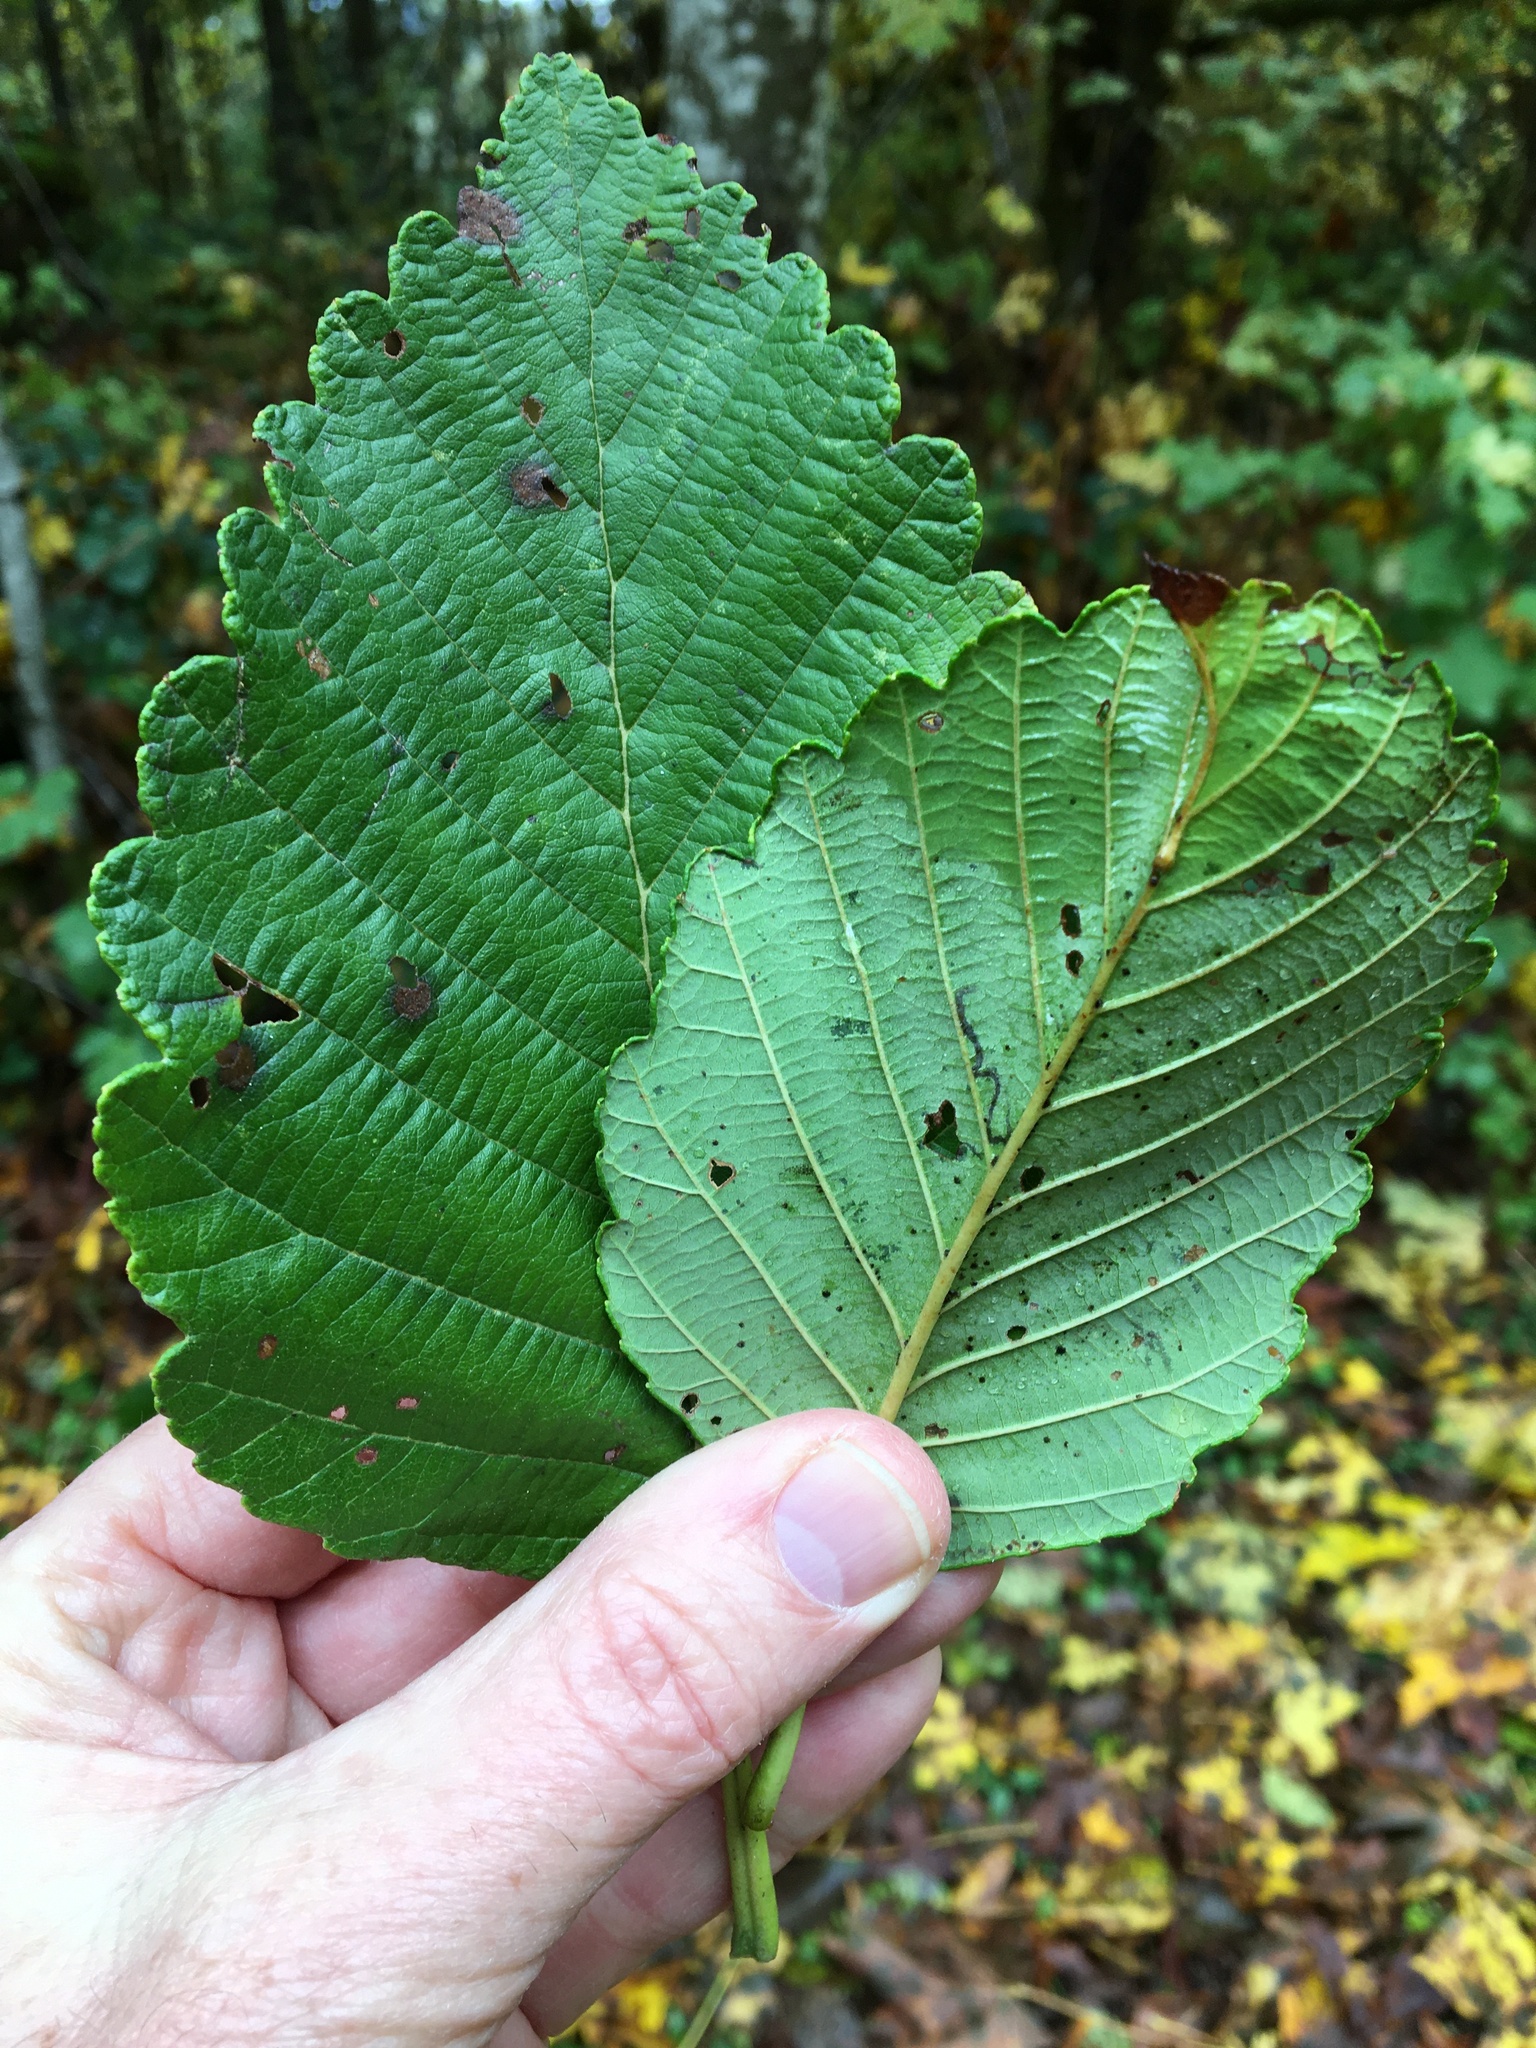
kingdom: Plantae
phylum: Tracheophyta
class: Magnoliopsida
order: Fagales
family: Betulaceae
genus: Alnus
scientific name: Alnus rubra
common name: Red alder
